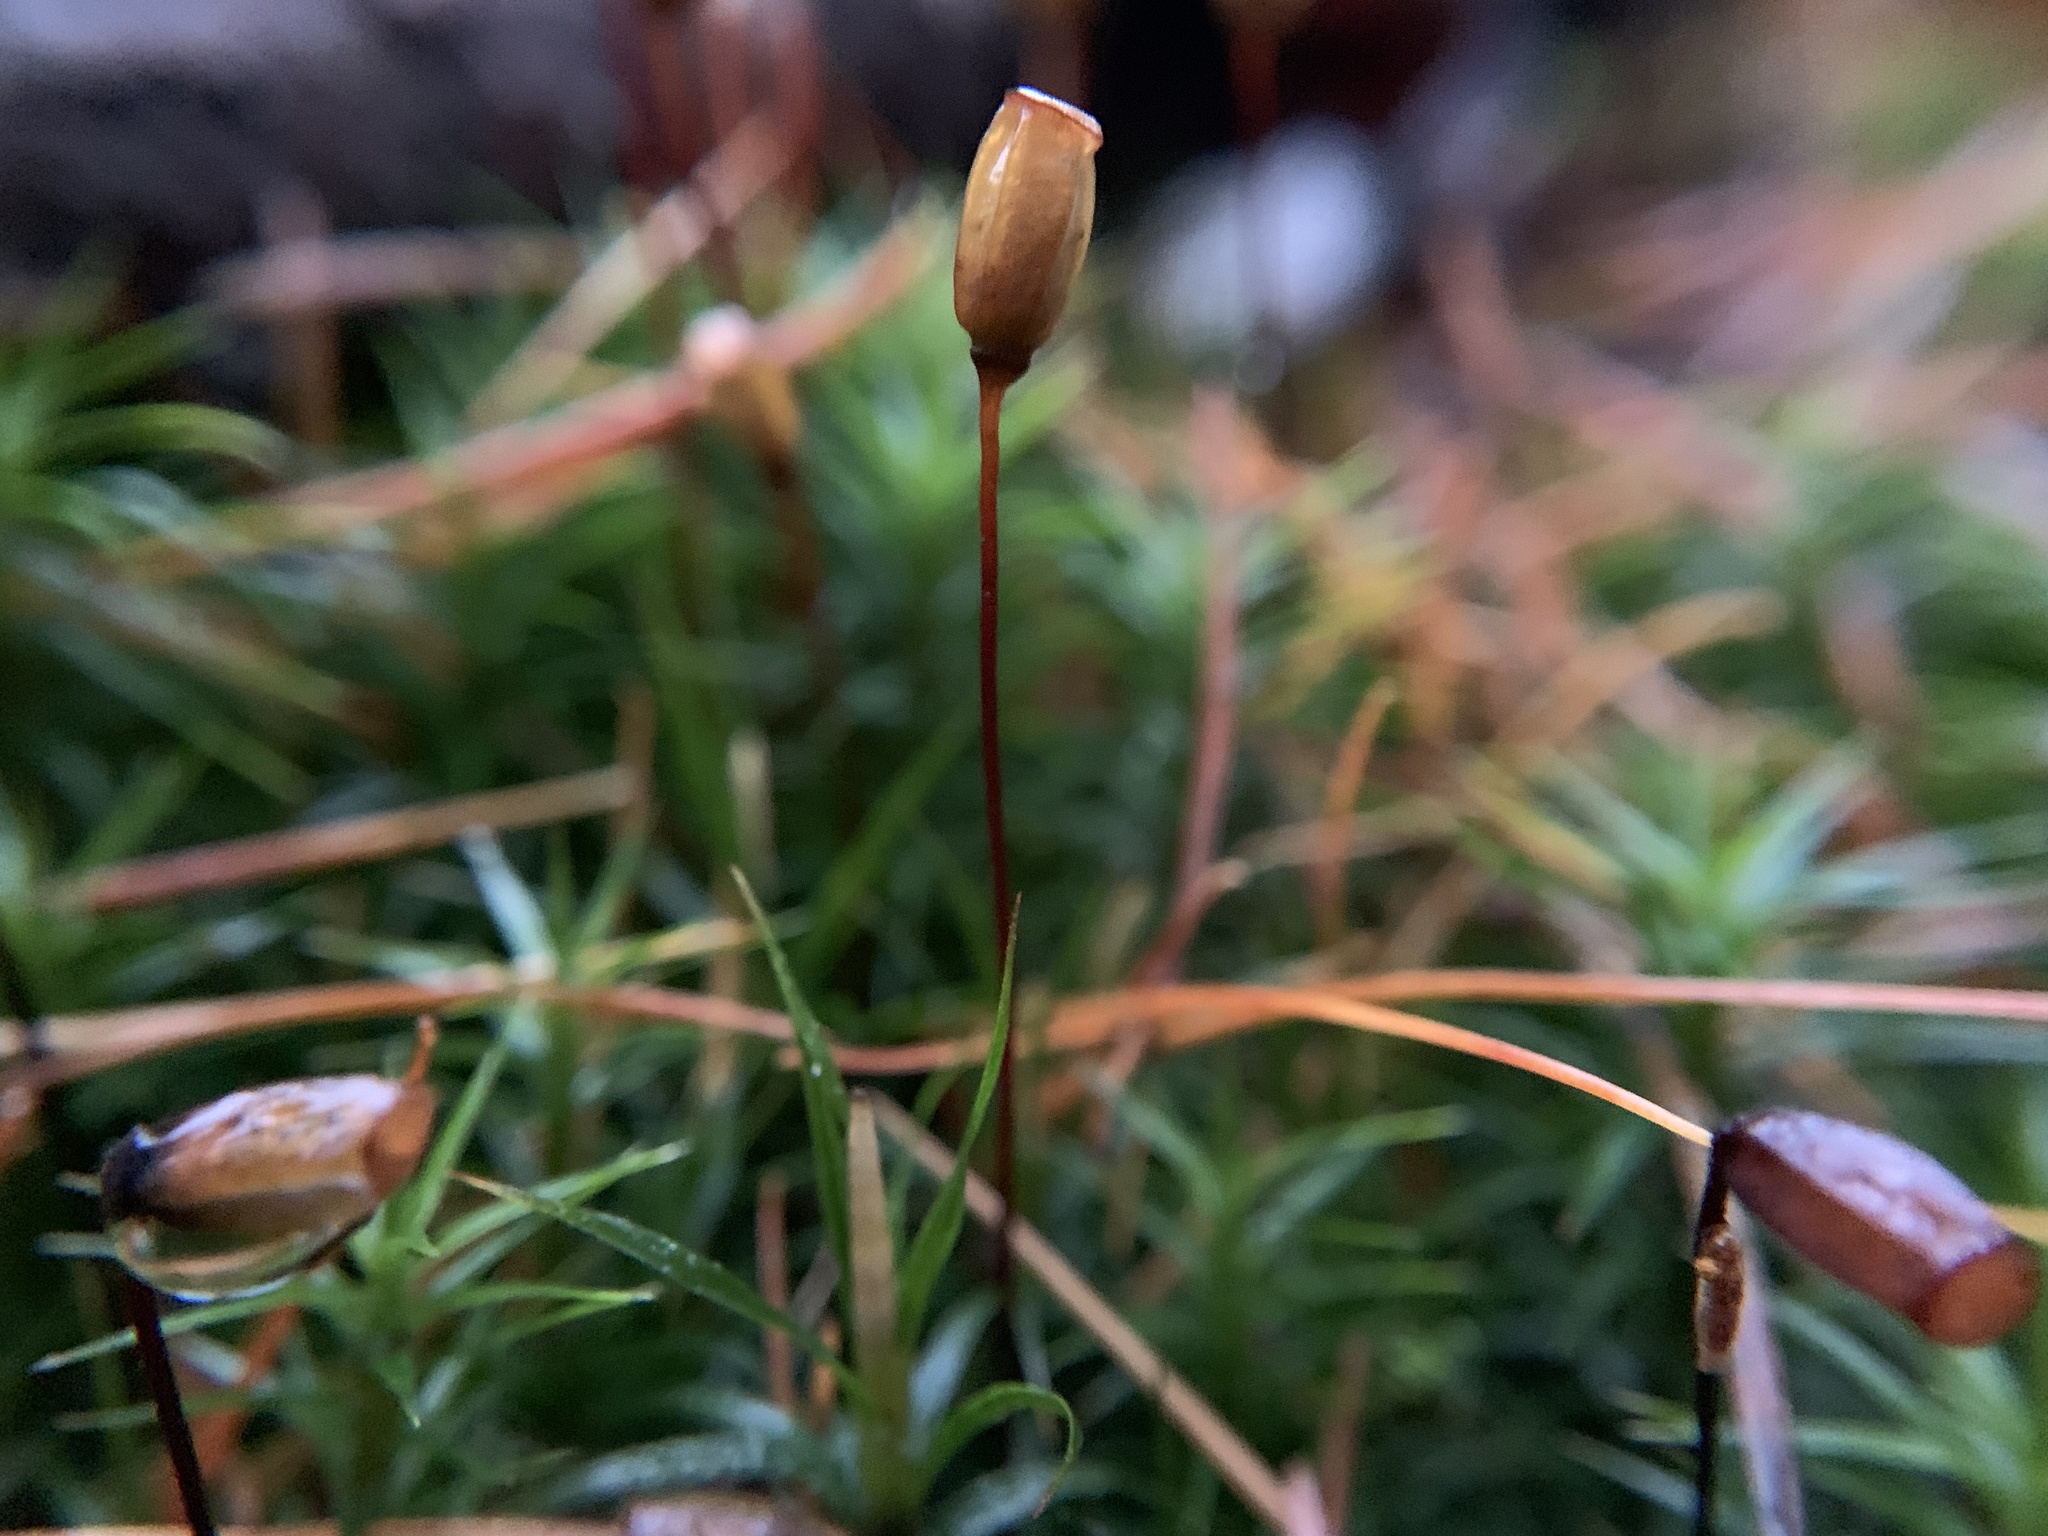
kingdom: Plantae
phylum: Bryophyta
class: Polytrichopsida
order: Polytrichales
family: Polytrichaceae
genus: Polytrichum
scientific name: Polytrichum formosum
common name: Bank haircap moss
